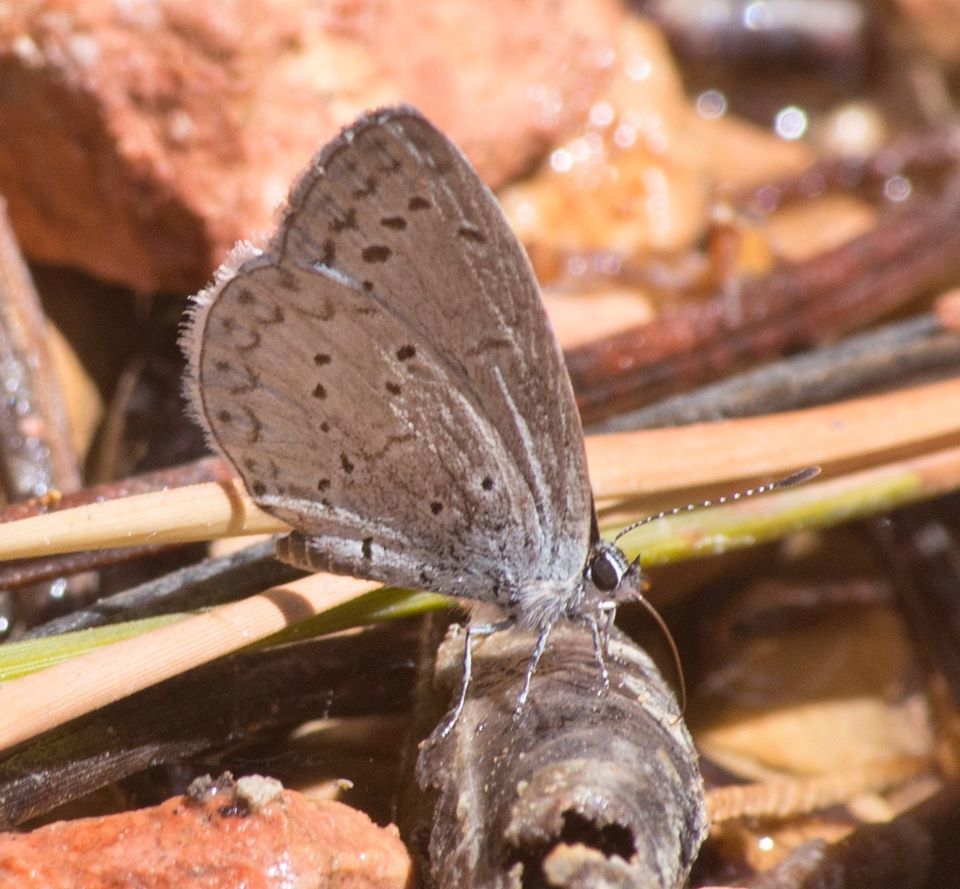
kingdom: Animalia
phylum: Arthropoda
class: Insecta
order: Lepidoptera
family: Lycaenidae
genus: Celastrina
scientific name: Celastrina ladon
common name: Spring azure
